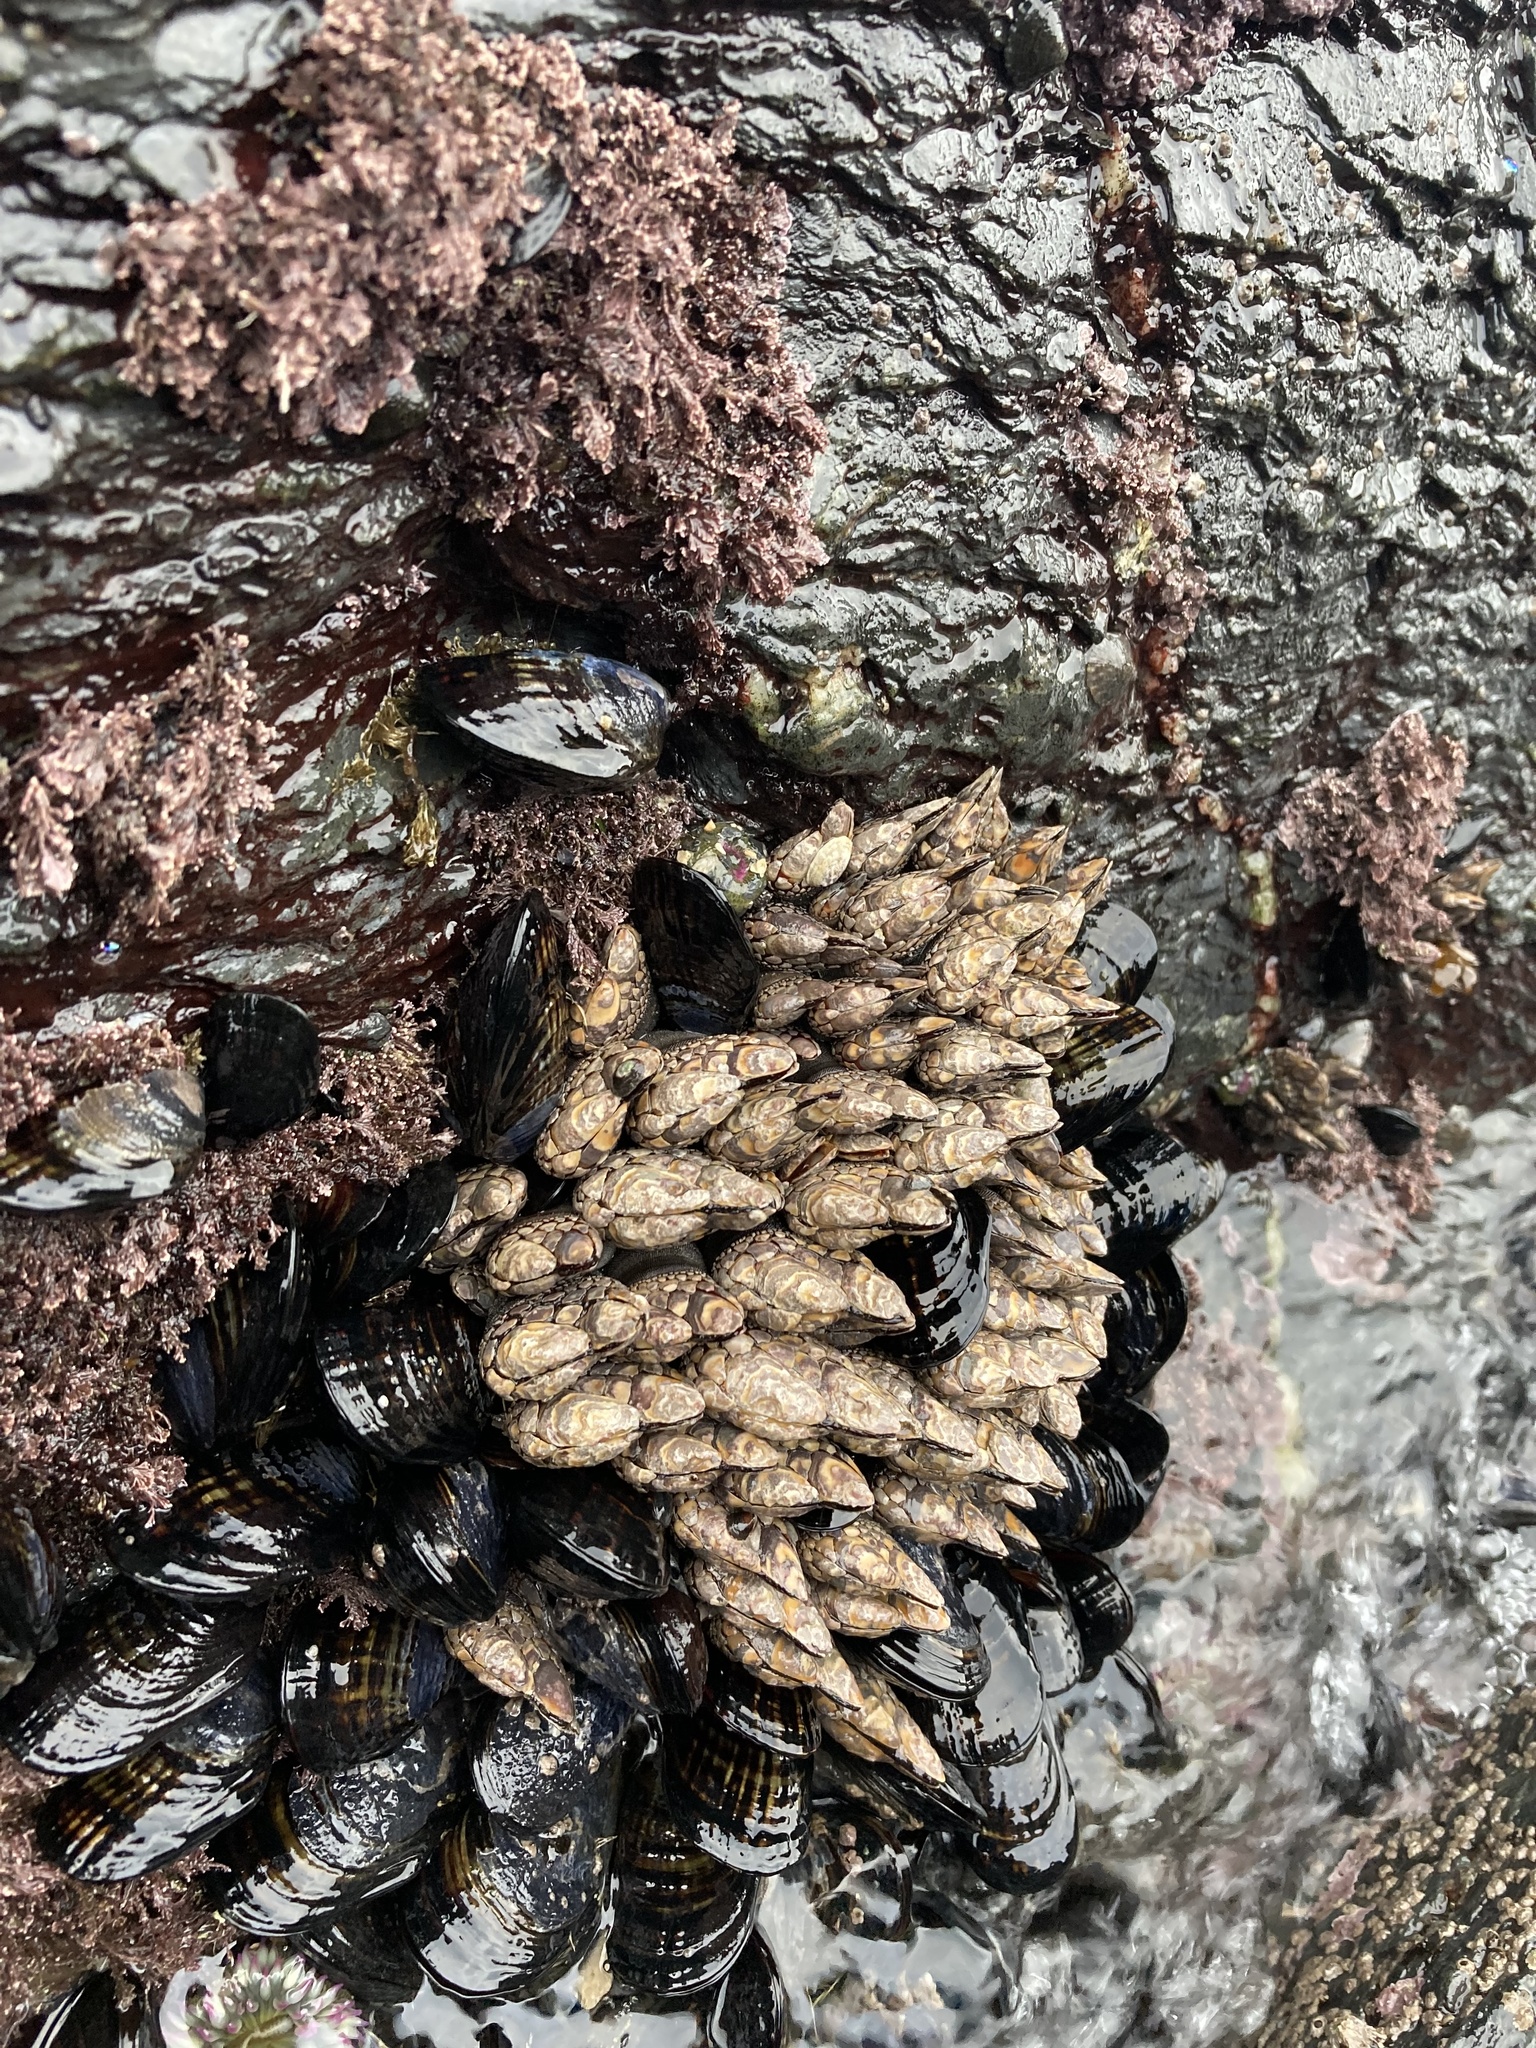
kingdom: Animalia
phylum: Arthropoda
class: Maxillopoda
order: Pedunculata
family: Pollicipedidae
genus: Pollicipes
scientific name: Pollicipes polymerus
